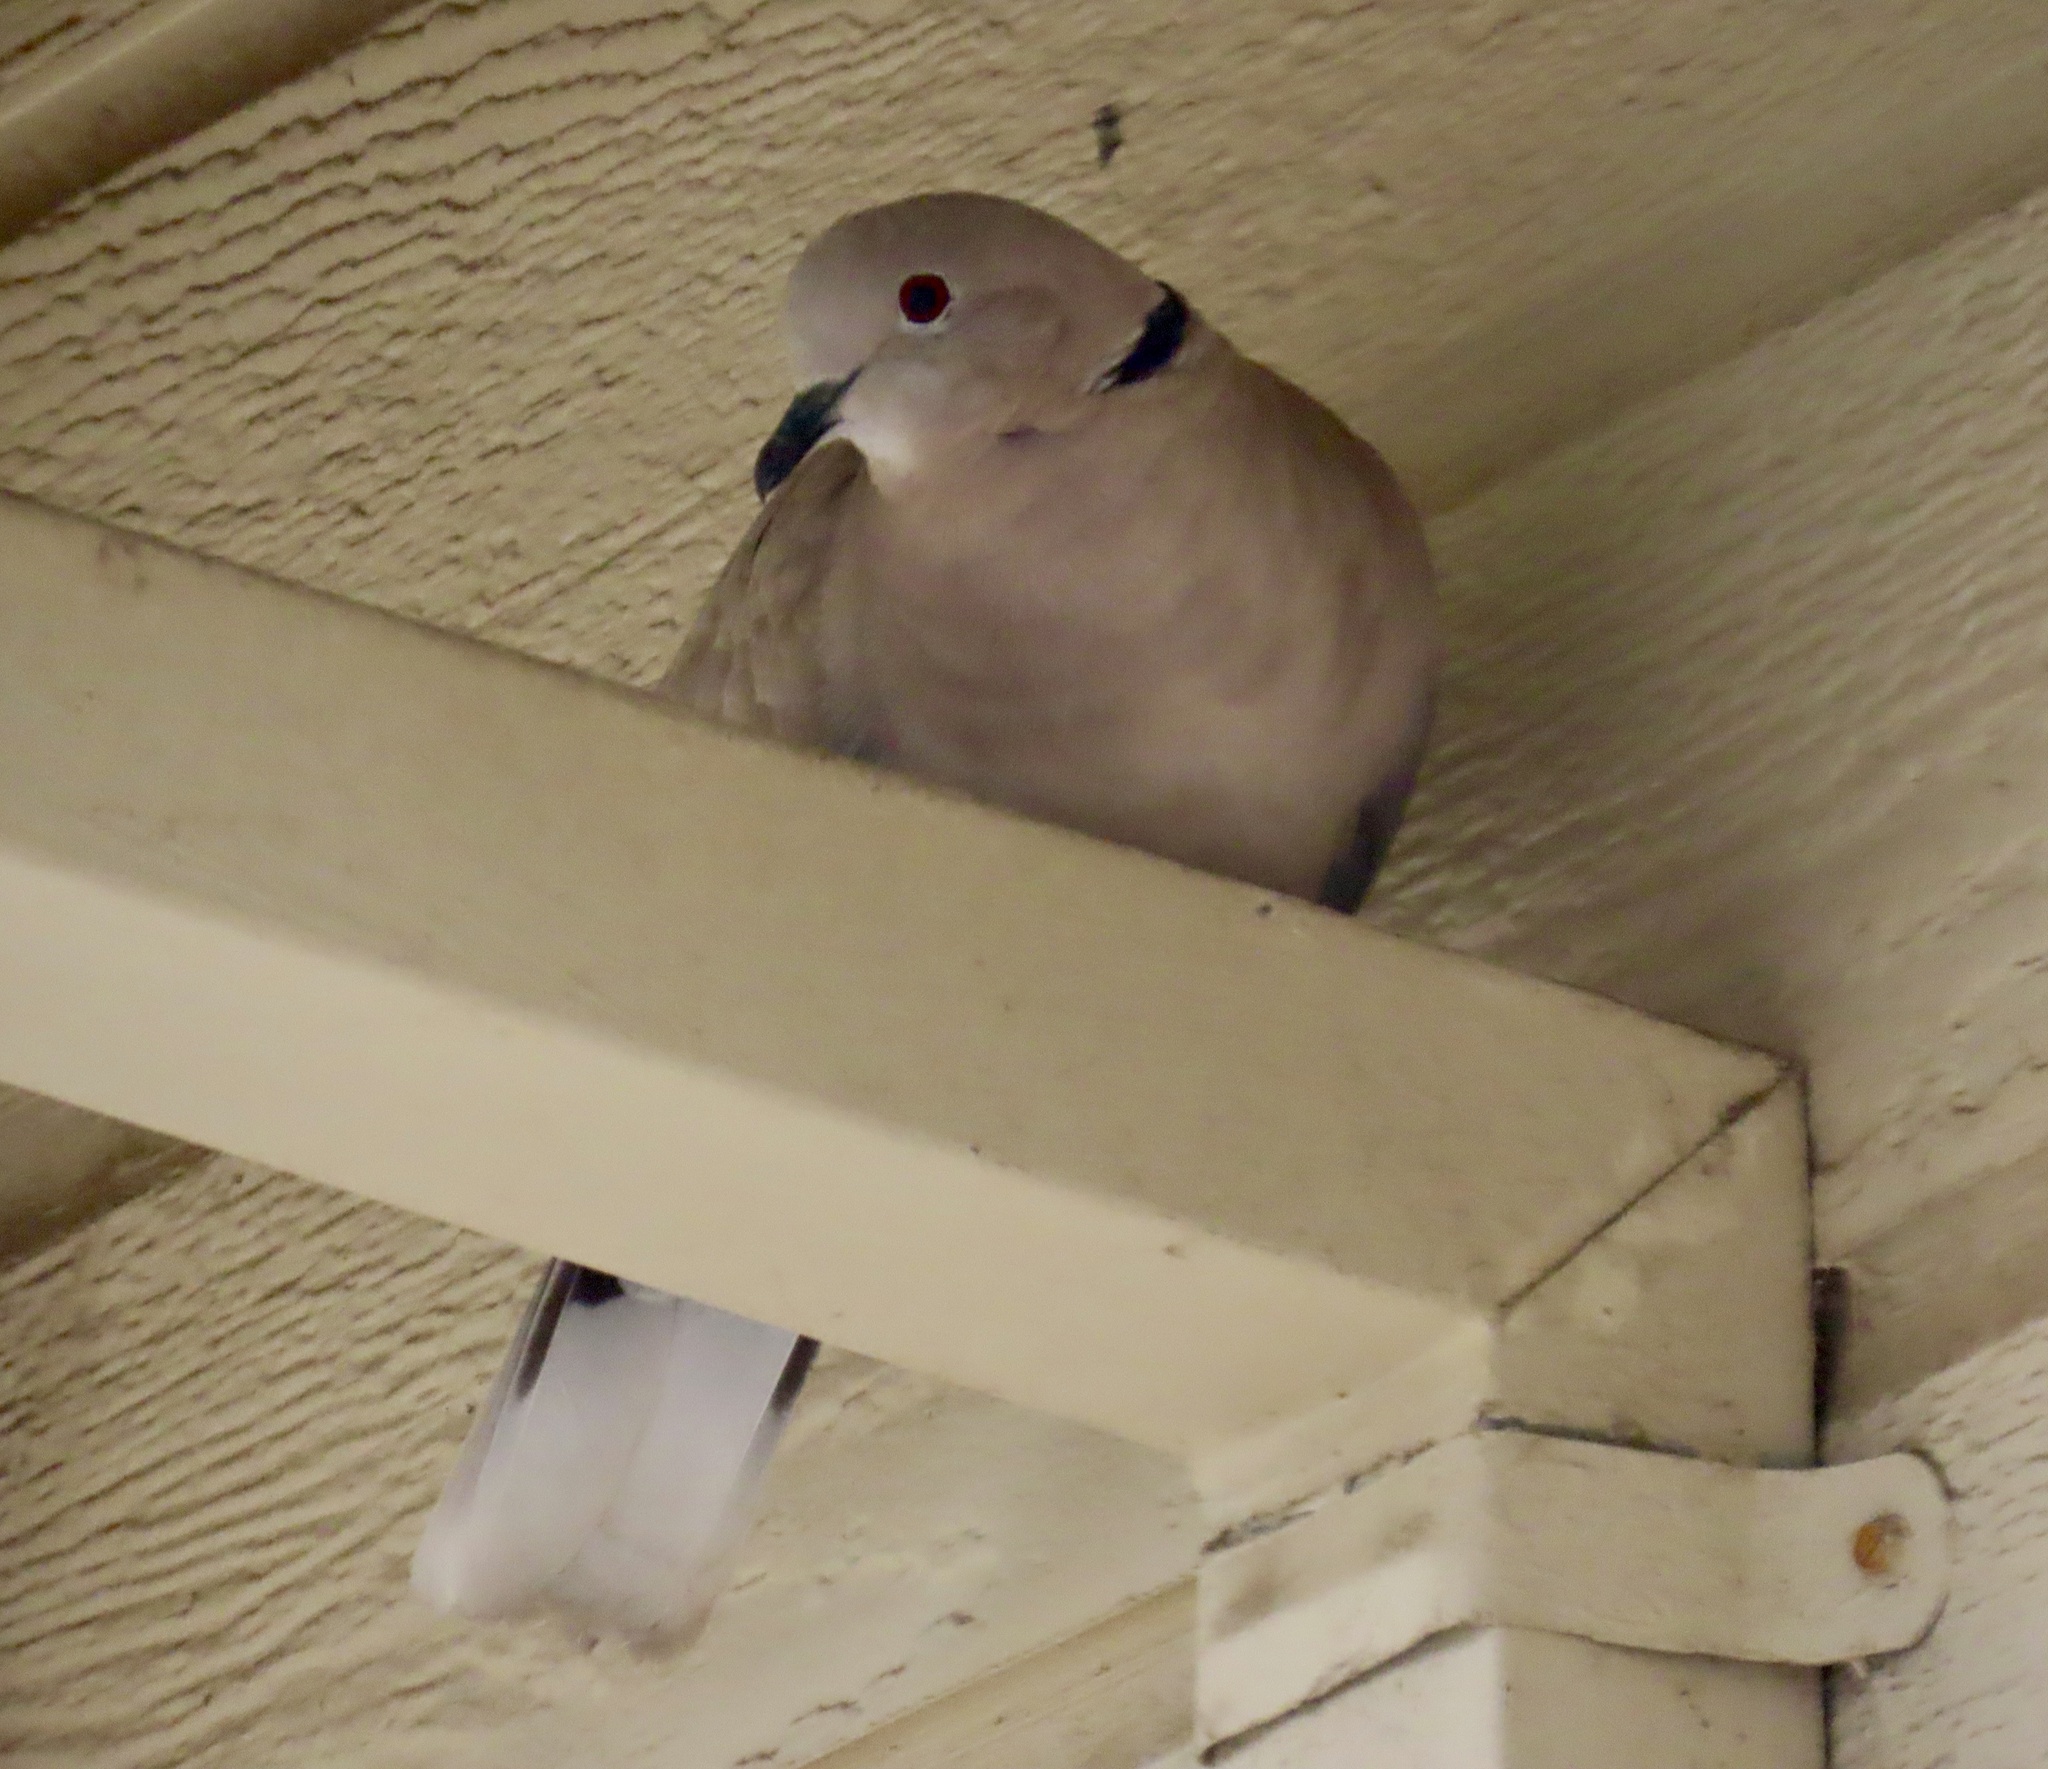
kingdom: Animalia
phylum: Chordata
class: Aves
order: Columbiformes
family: Columbidae
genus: Streptopelia
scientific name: Streptopelia decaocto
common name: Eurasian collared dove
